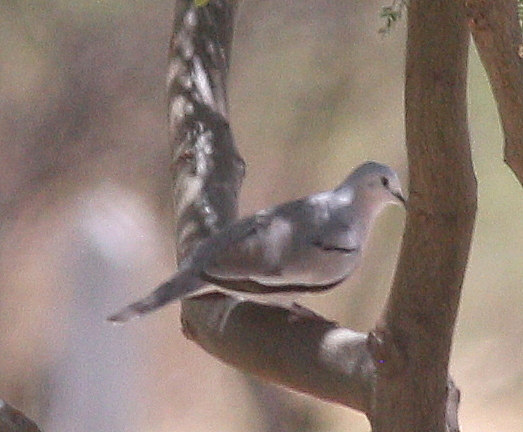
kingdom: Animalia
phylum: Chordata
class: Aves
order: Columbiformes
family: Columbidae
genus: Columbina
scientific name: Columbina picui
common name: Picui ground dove
